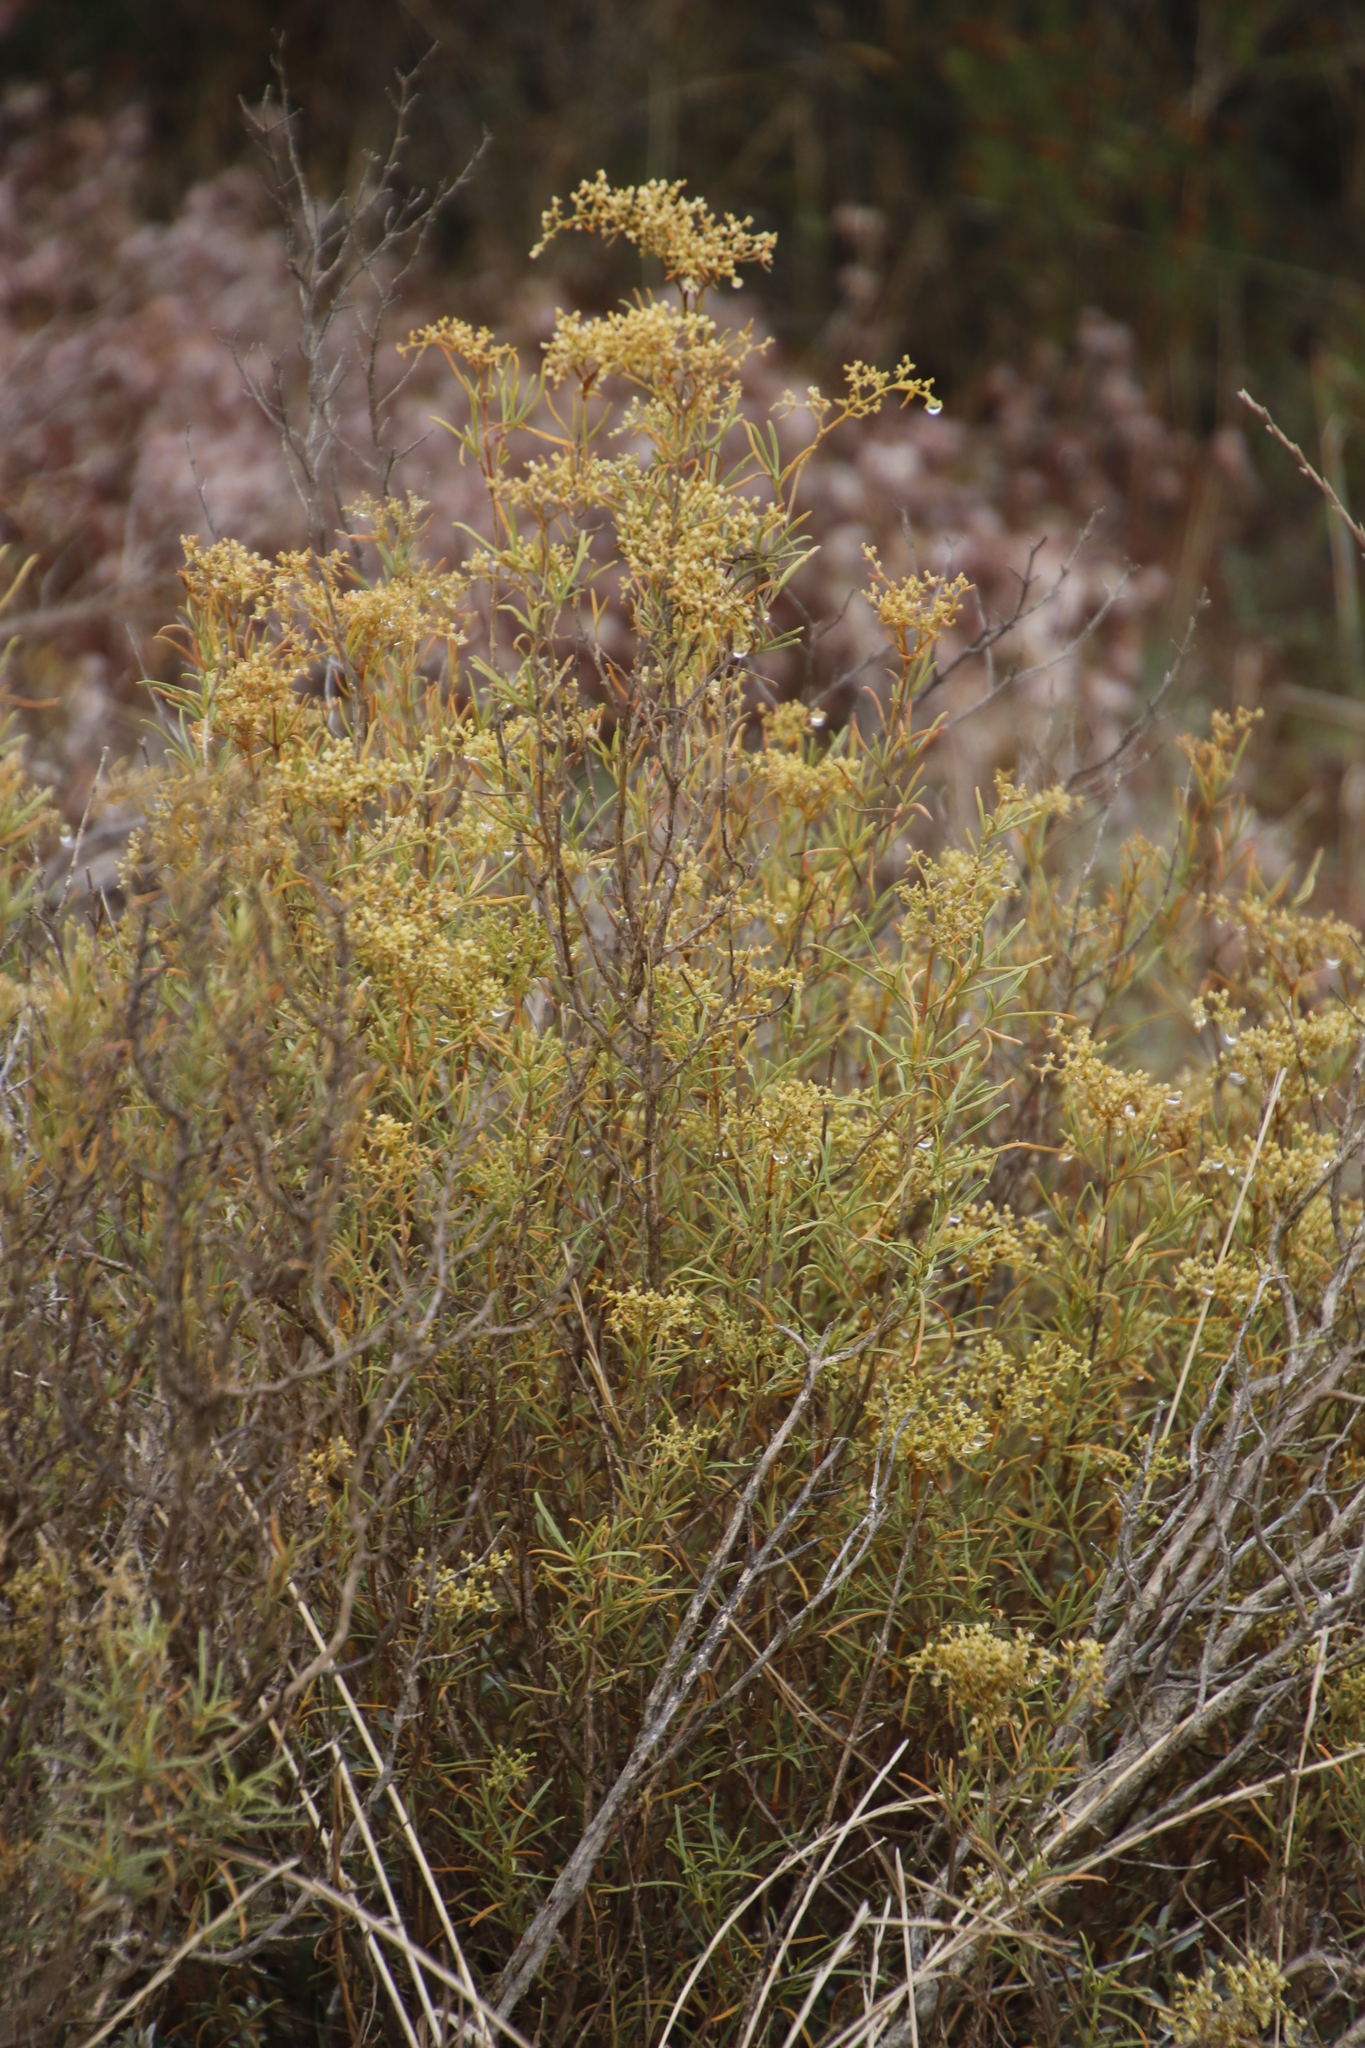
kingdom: Plantae
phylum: Tracheophyta
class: Magnoliopsida
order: Caryophyllales
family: Aizoaceae
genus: Aizoon
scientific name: Aizoon africanum
